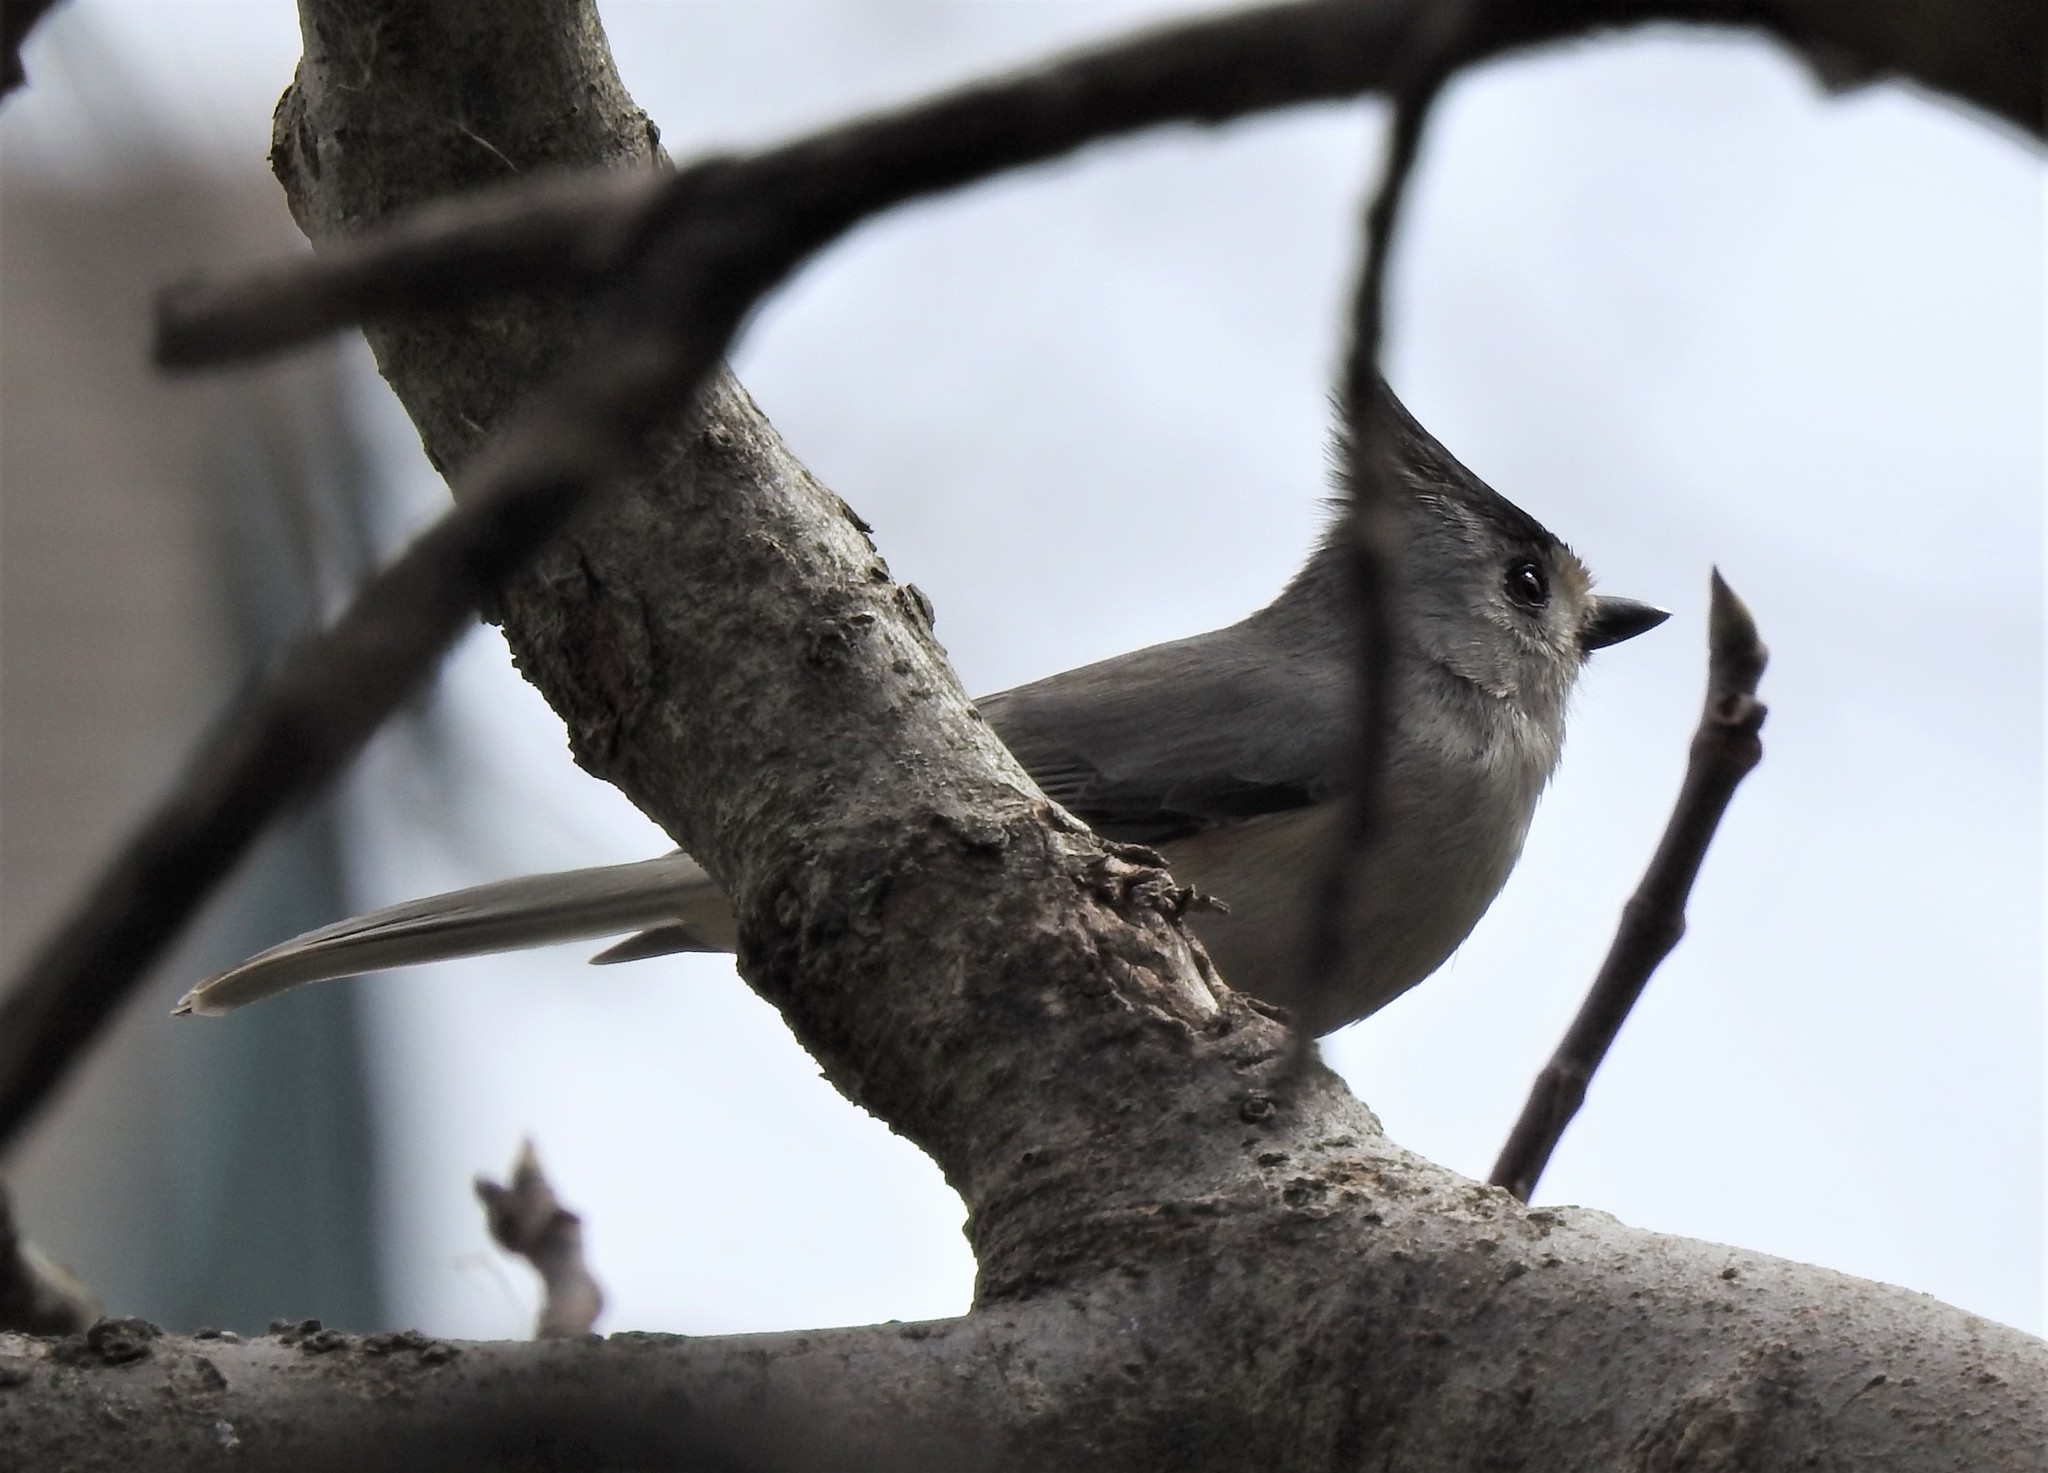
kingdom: Animalia
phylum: Chordata
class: Aves
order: Passeriformes
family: Paridae
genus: Baeolophus
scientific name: Baeolophus atricristatus
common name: Black-crested titmouse
